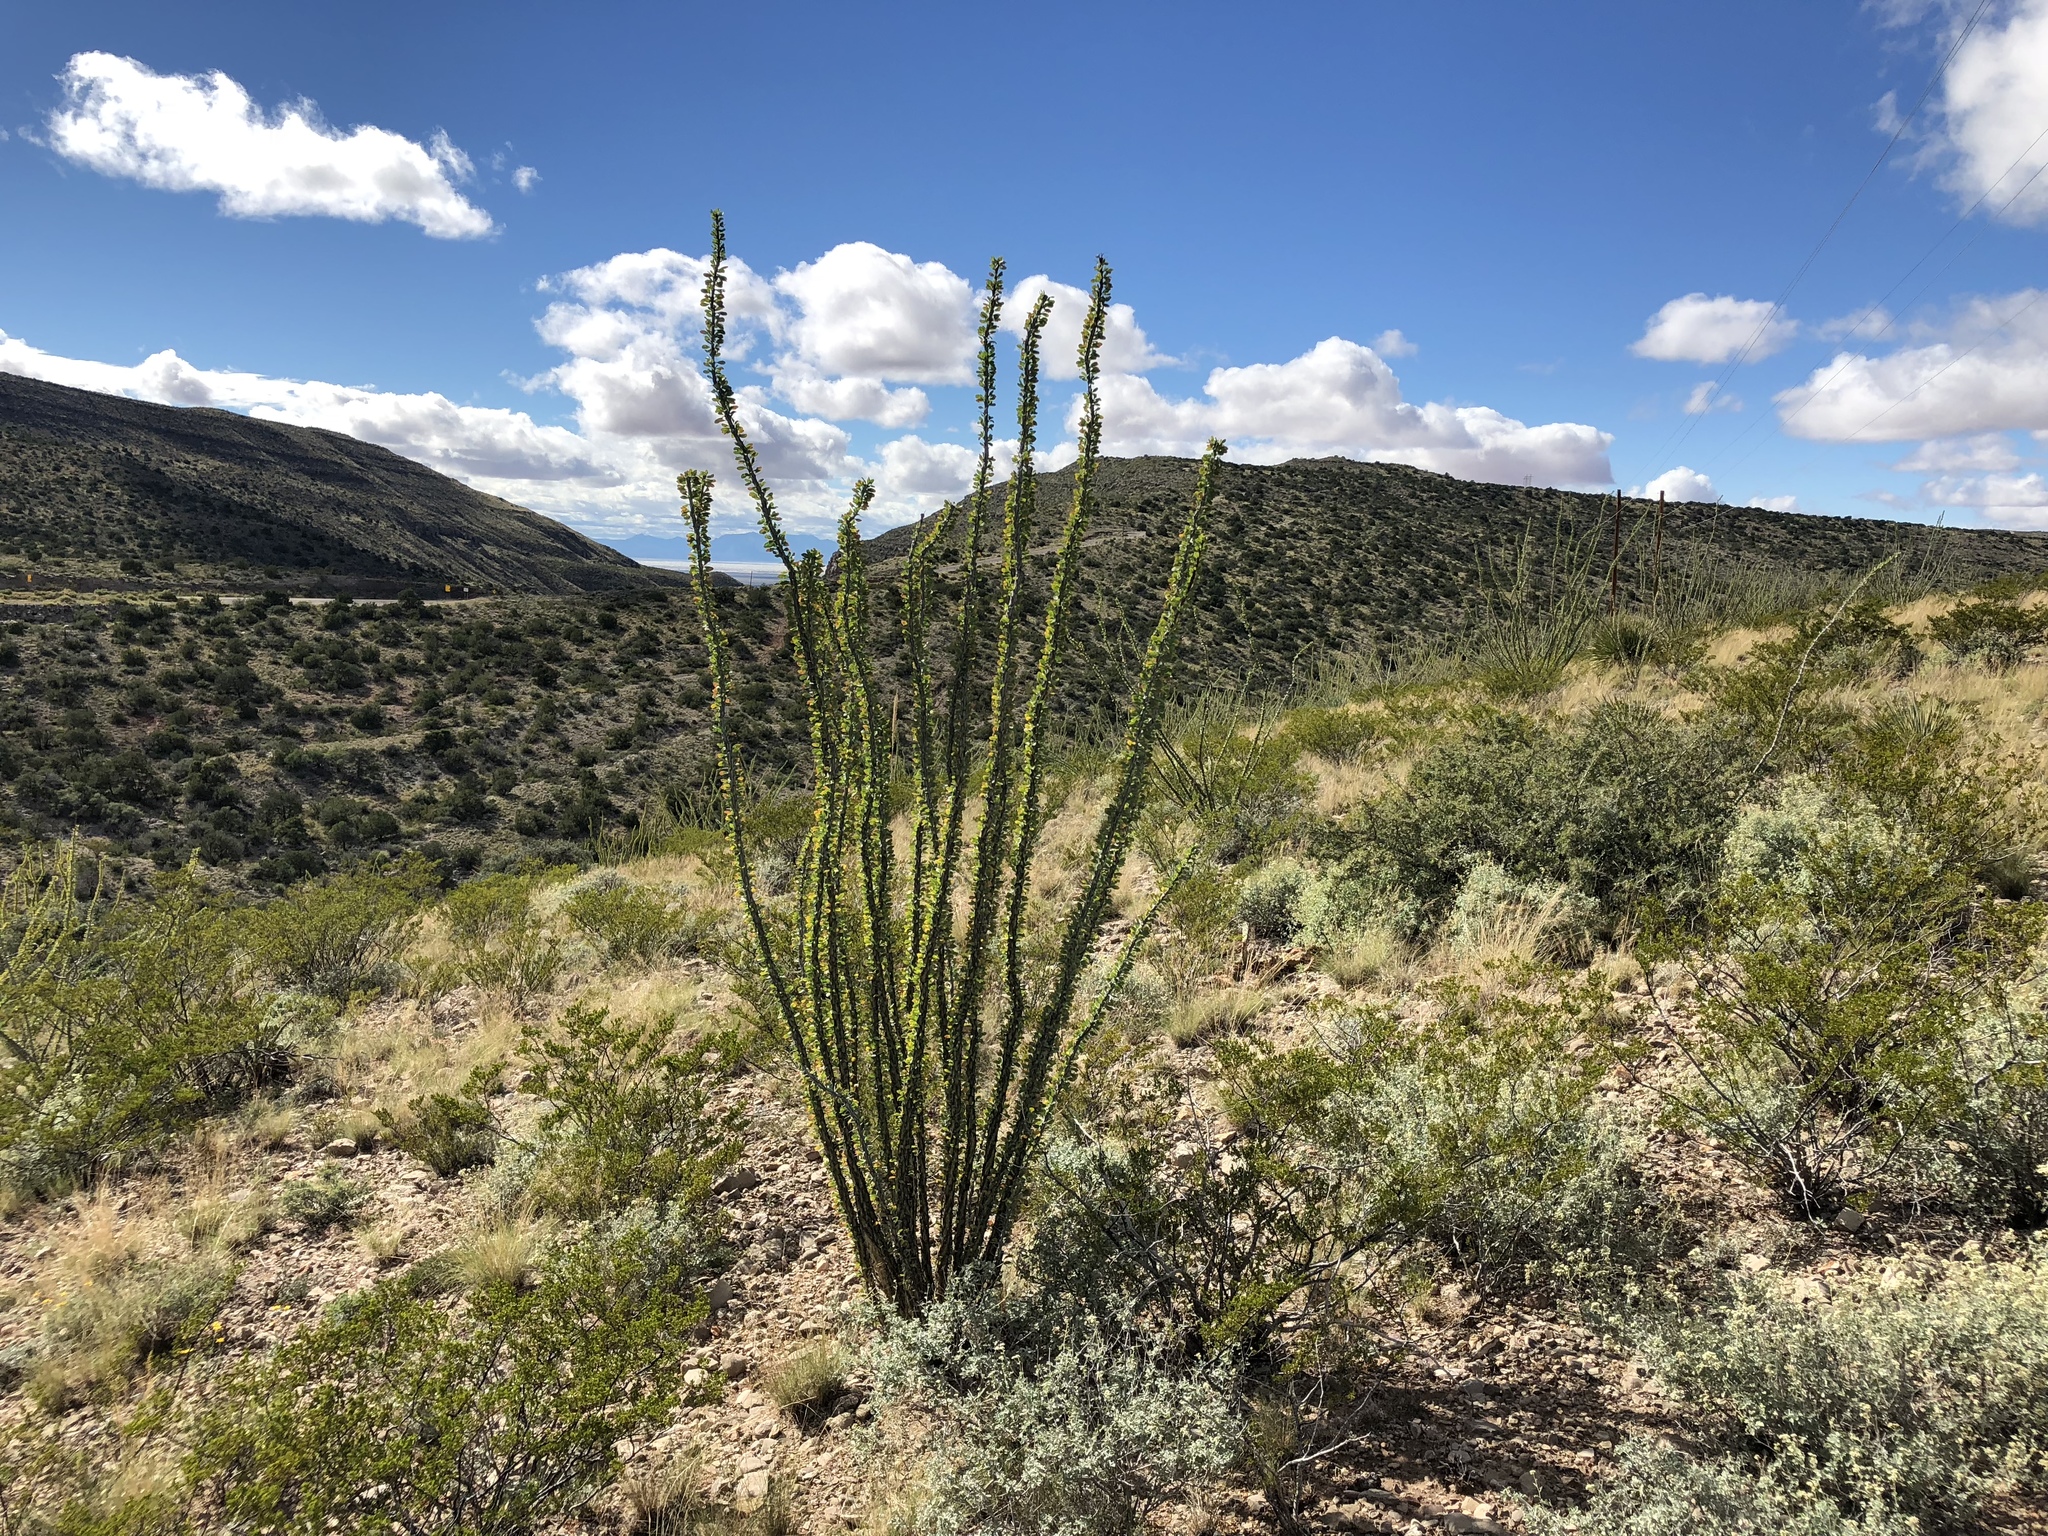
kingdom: Plantae
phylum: Tracheophyta
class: Magnoliopsida
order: Ericales
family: Fouquieriaceae
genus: Fouquieria
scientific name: Fouquieria splendens
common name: Vine-cactus
